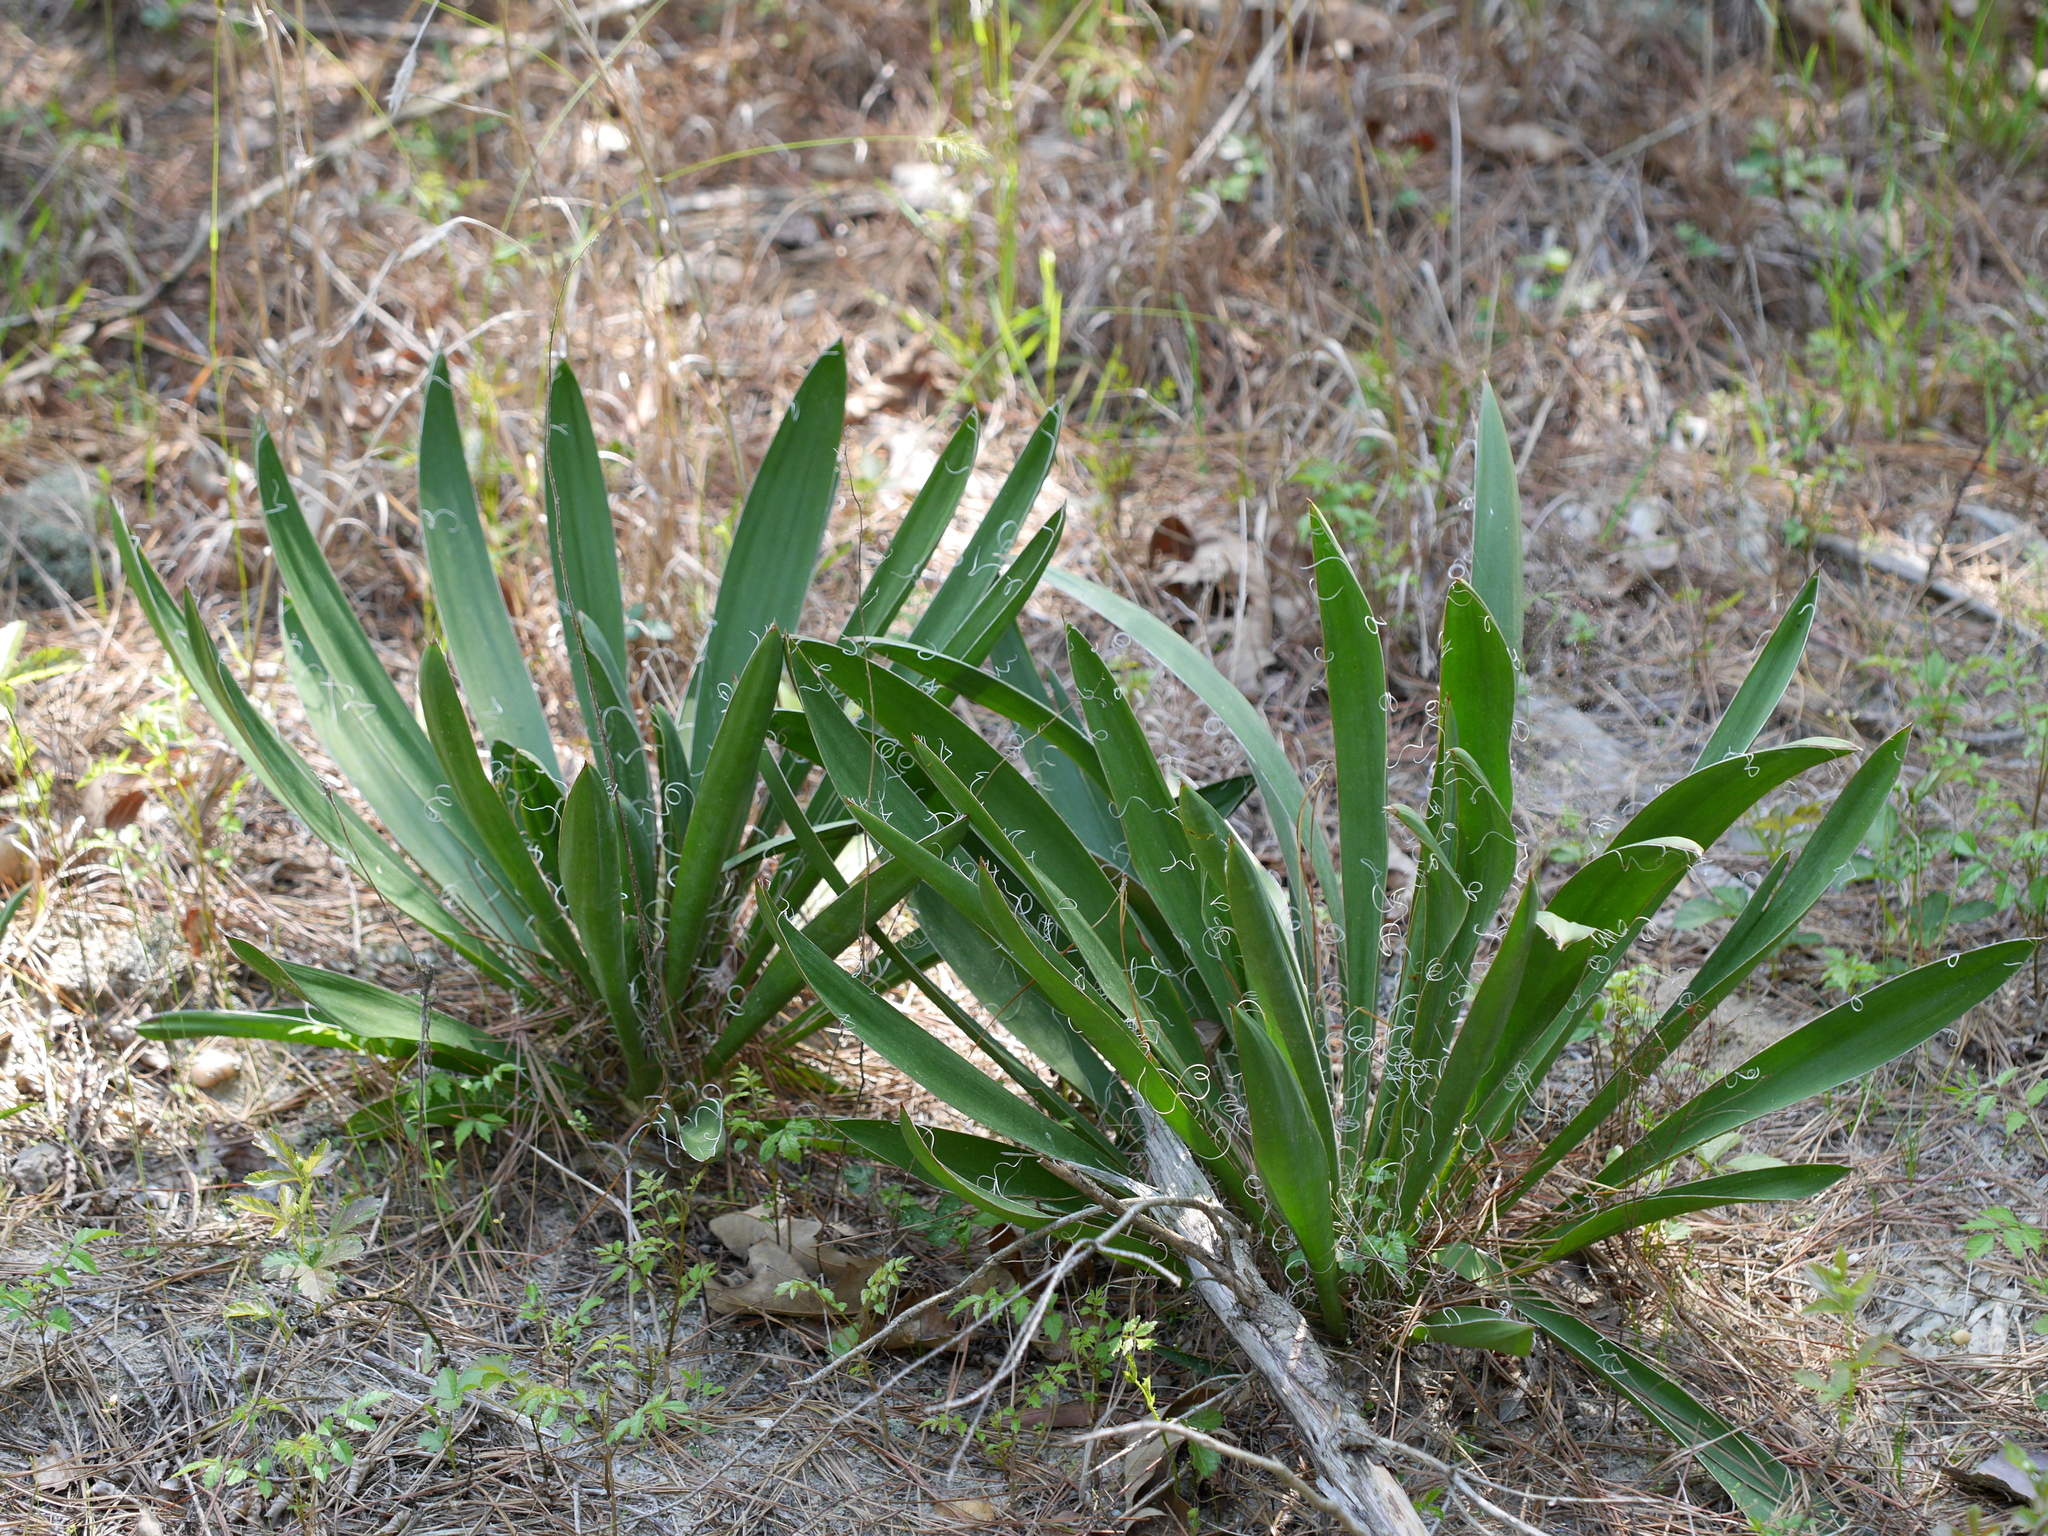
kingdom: Plantae
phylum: Tracheophyta
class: Liliopsida
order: Asparagales
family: Asparagaceae
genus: Yucca
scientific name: Yucca filamentosa
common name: Adam's-needle
